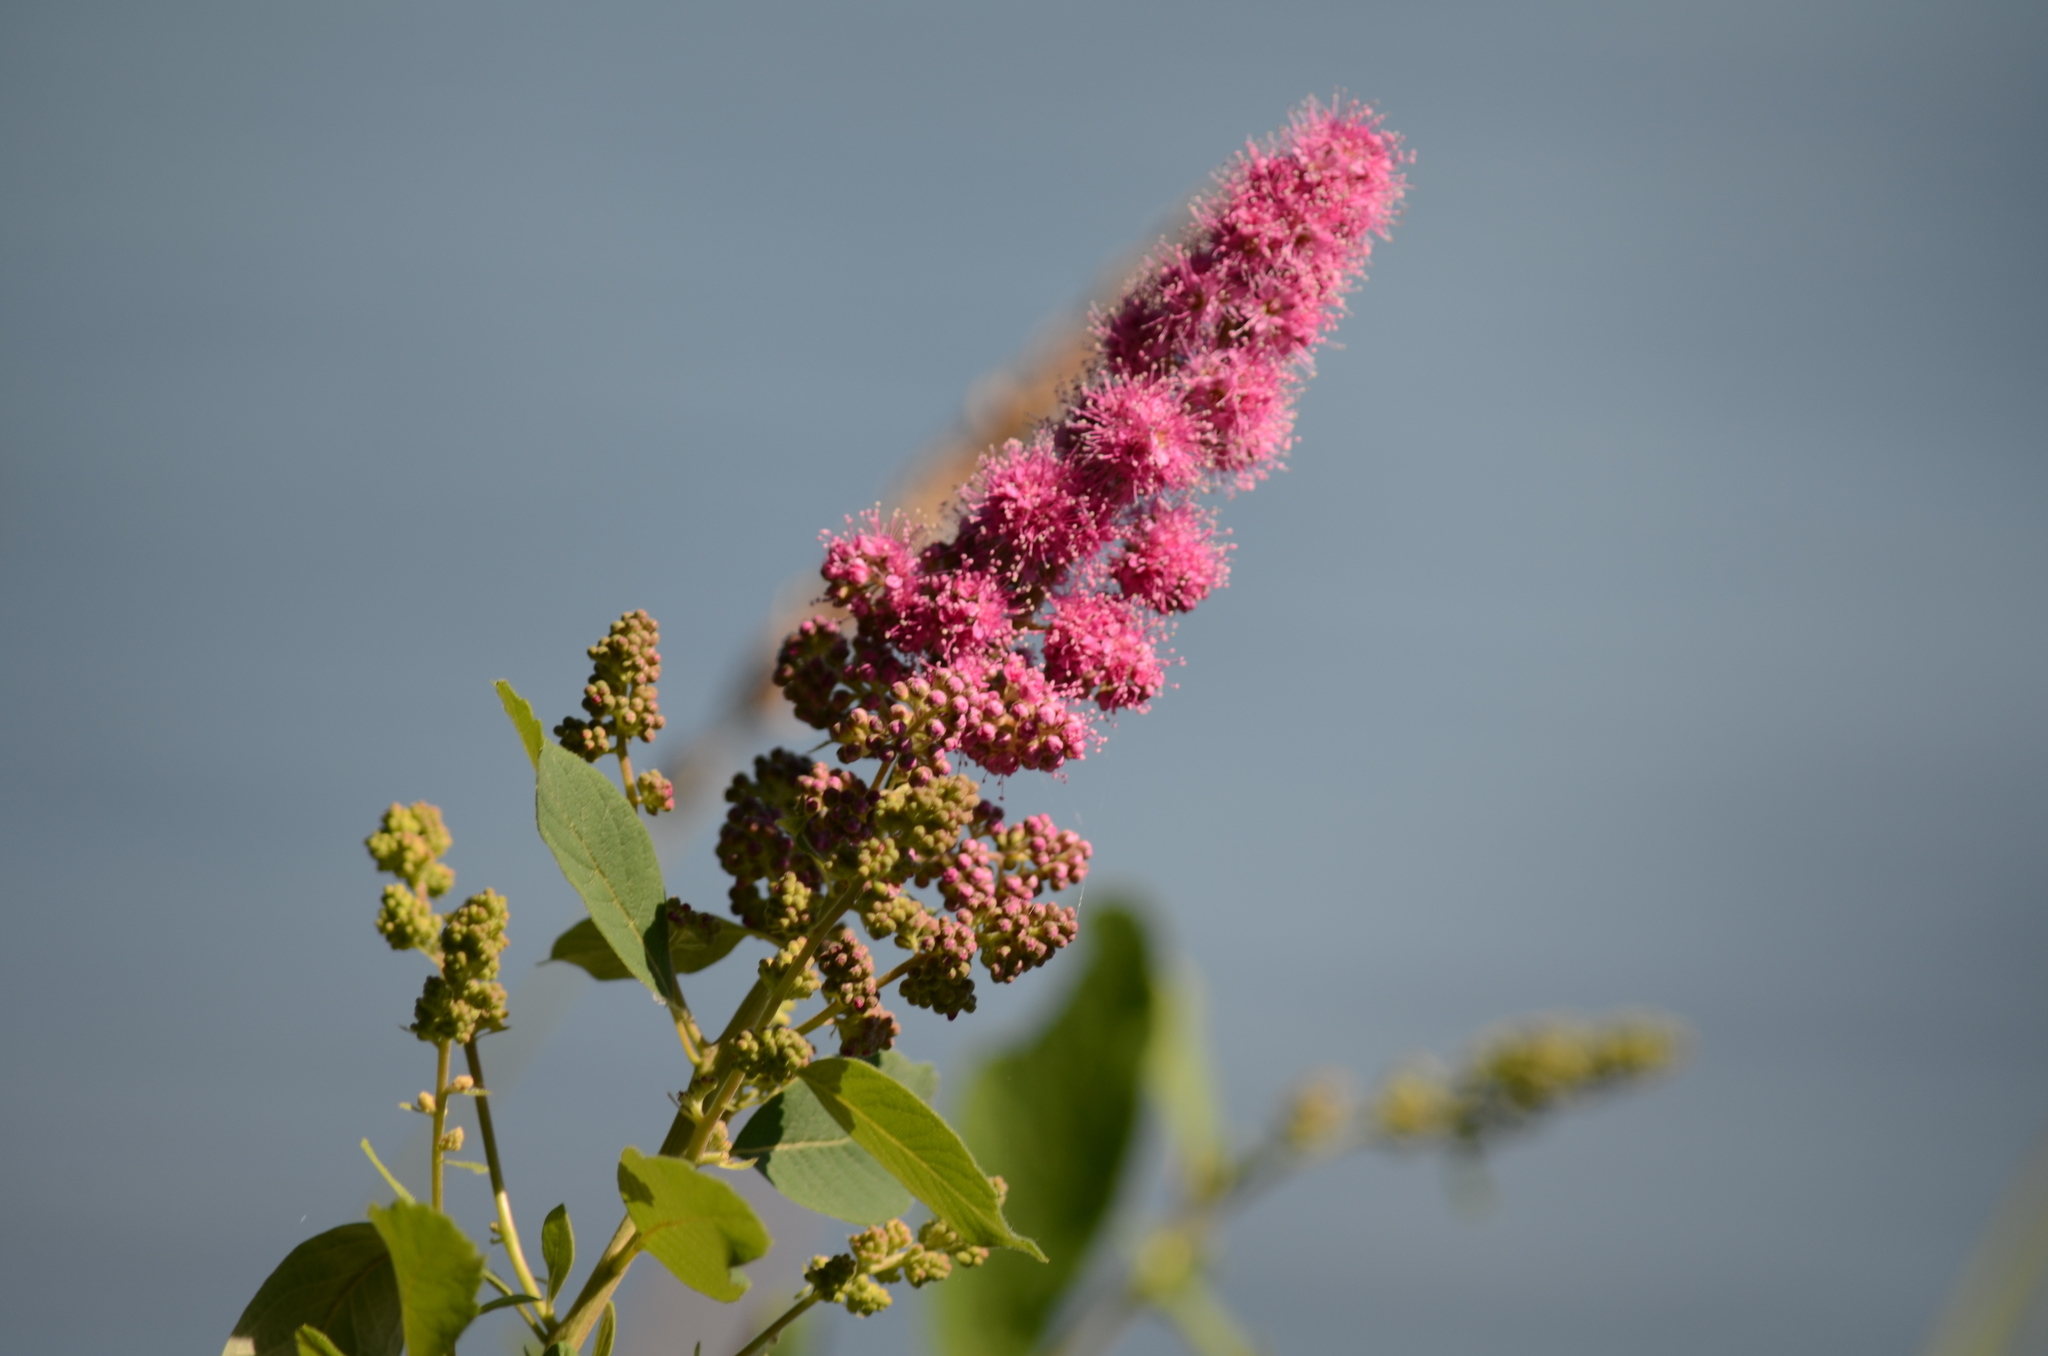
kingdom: Plantae
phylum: Tracheophyta
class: Magnoliopsida
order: Rosales
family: Rosaceae
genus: Spiraea
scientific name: Spiraea douglasii
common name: Steeplebush
